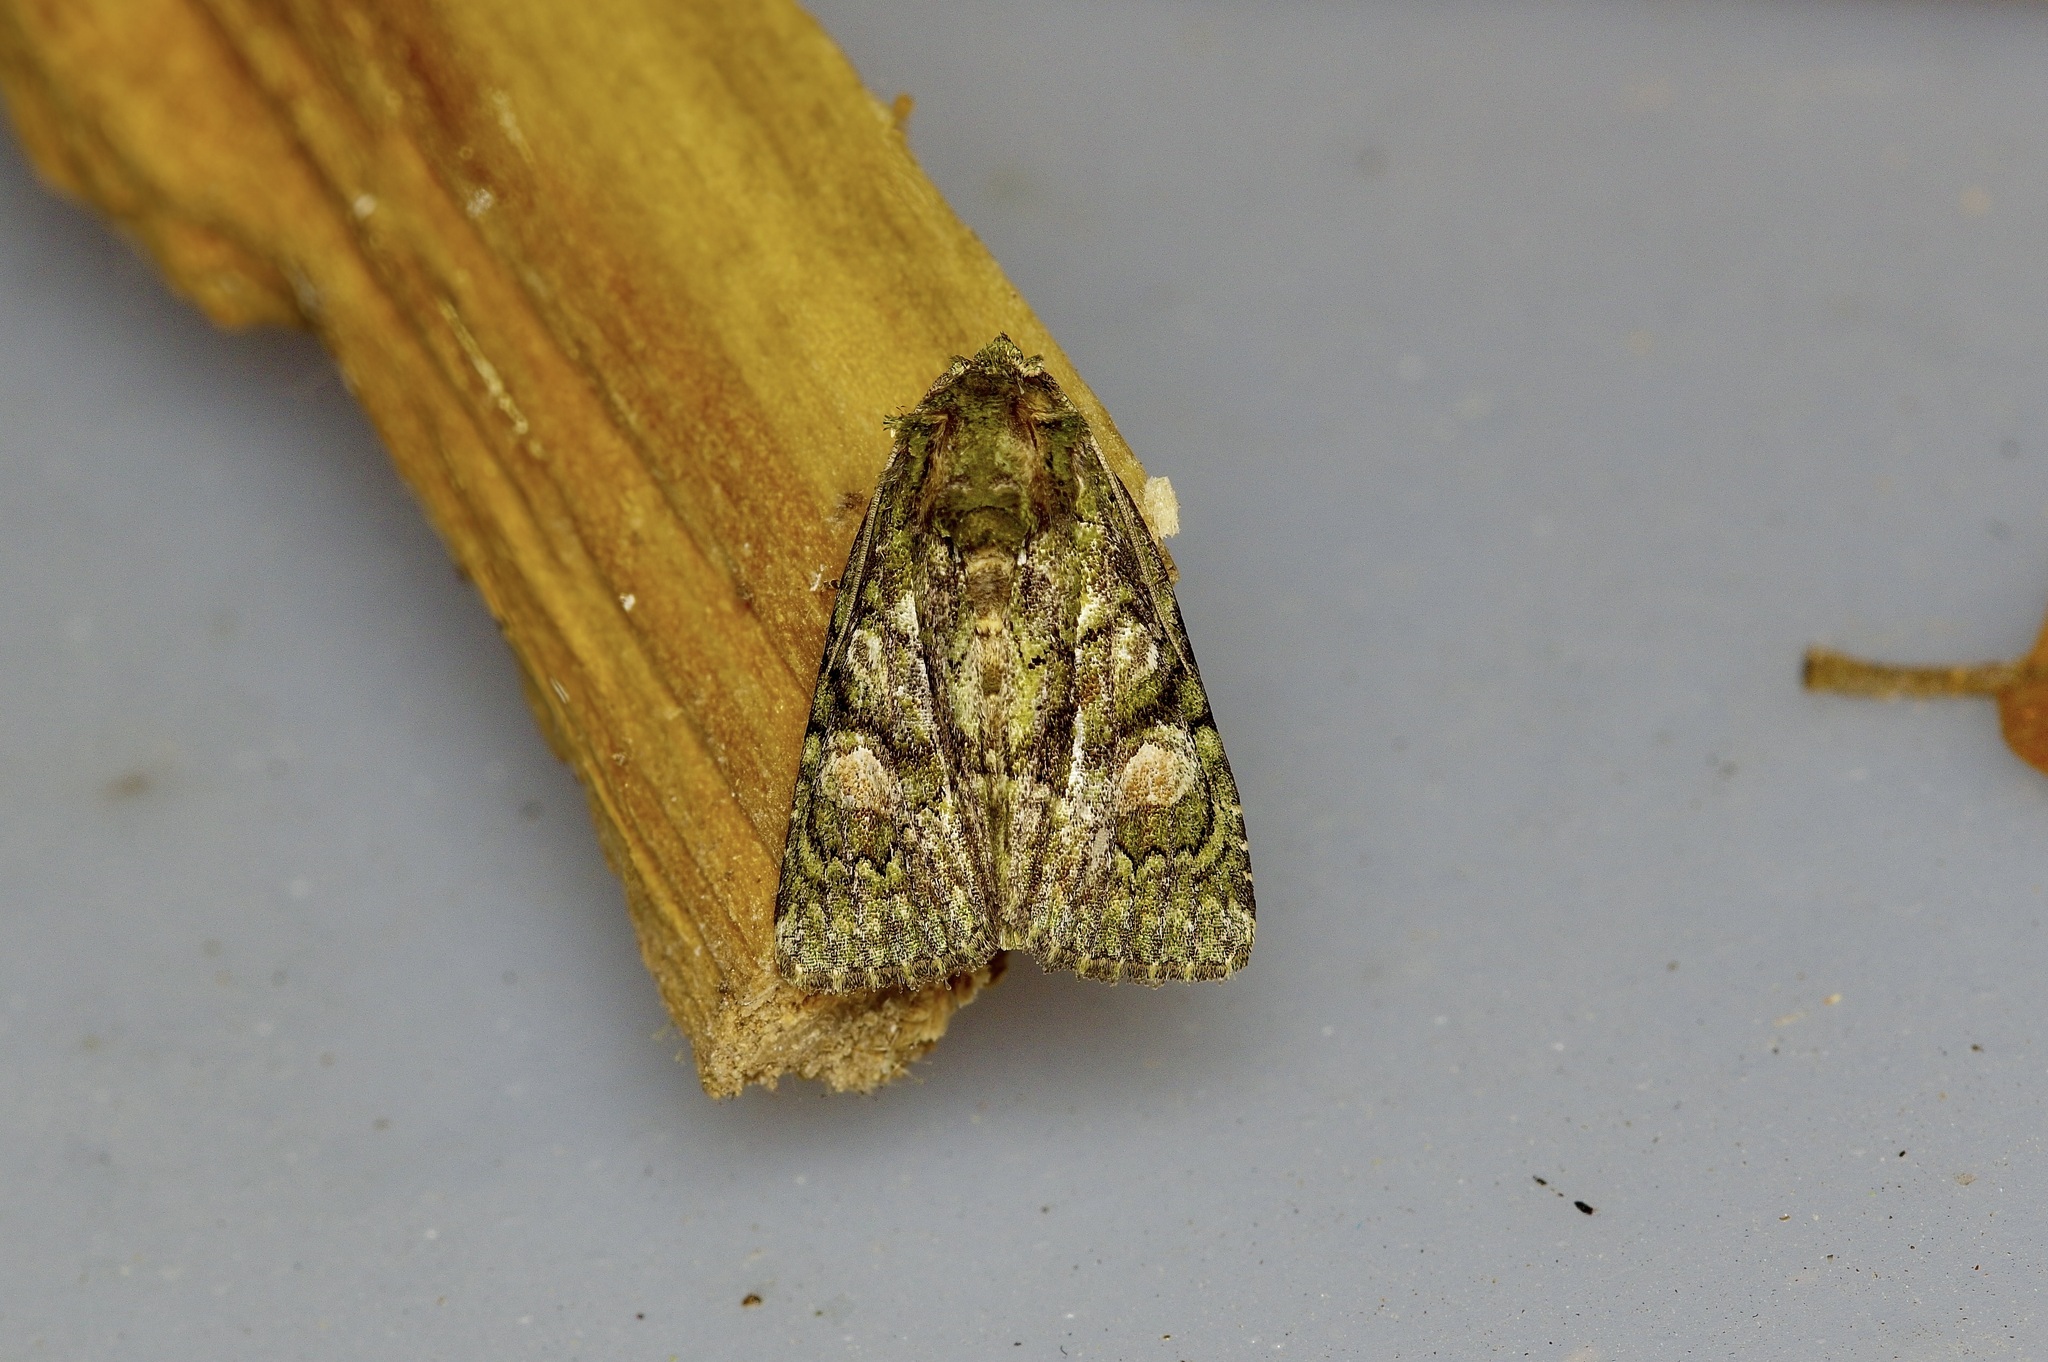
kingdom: Animalia
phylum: Arthropoda
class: Insecta
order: Lepidoptera
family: Noctuidae
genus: Phosphila
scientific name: Phosphila miselioides
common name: Spotted phosphila moth
